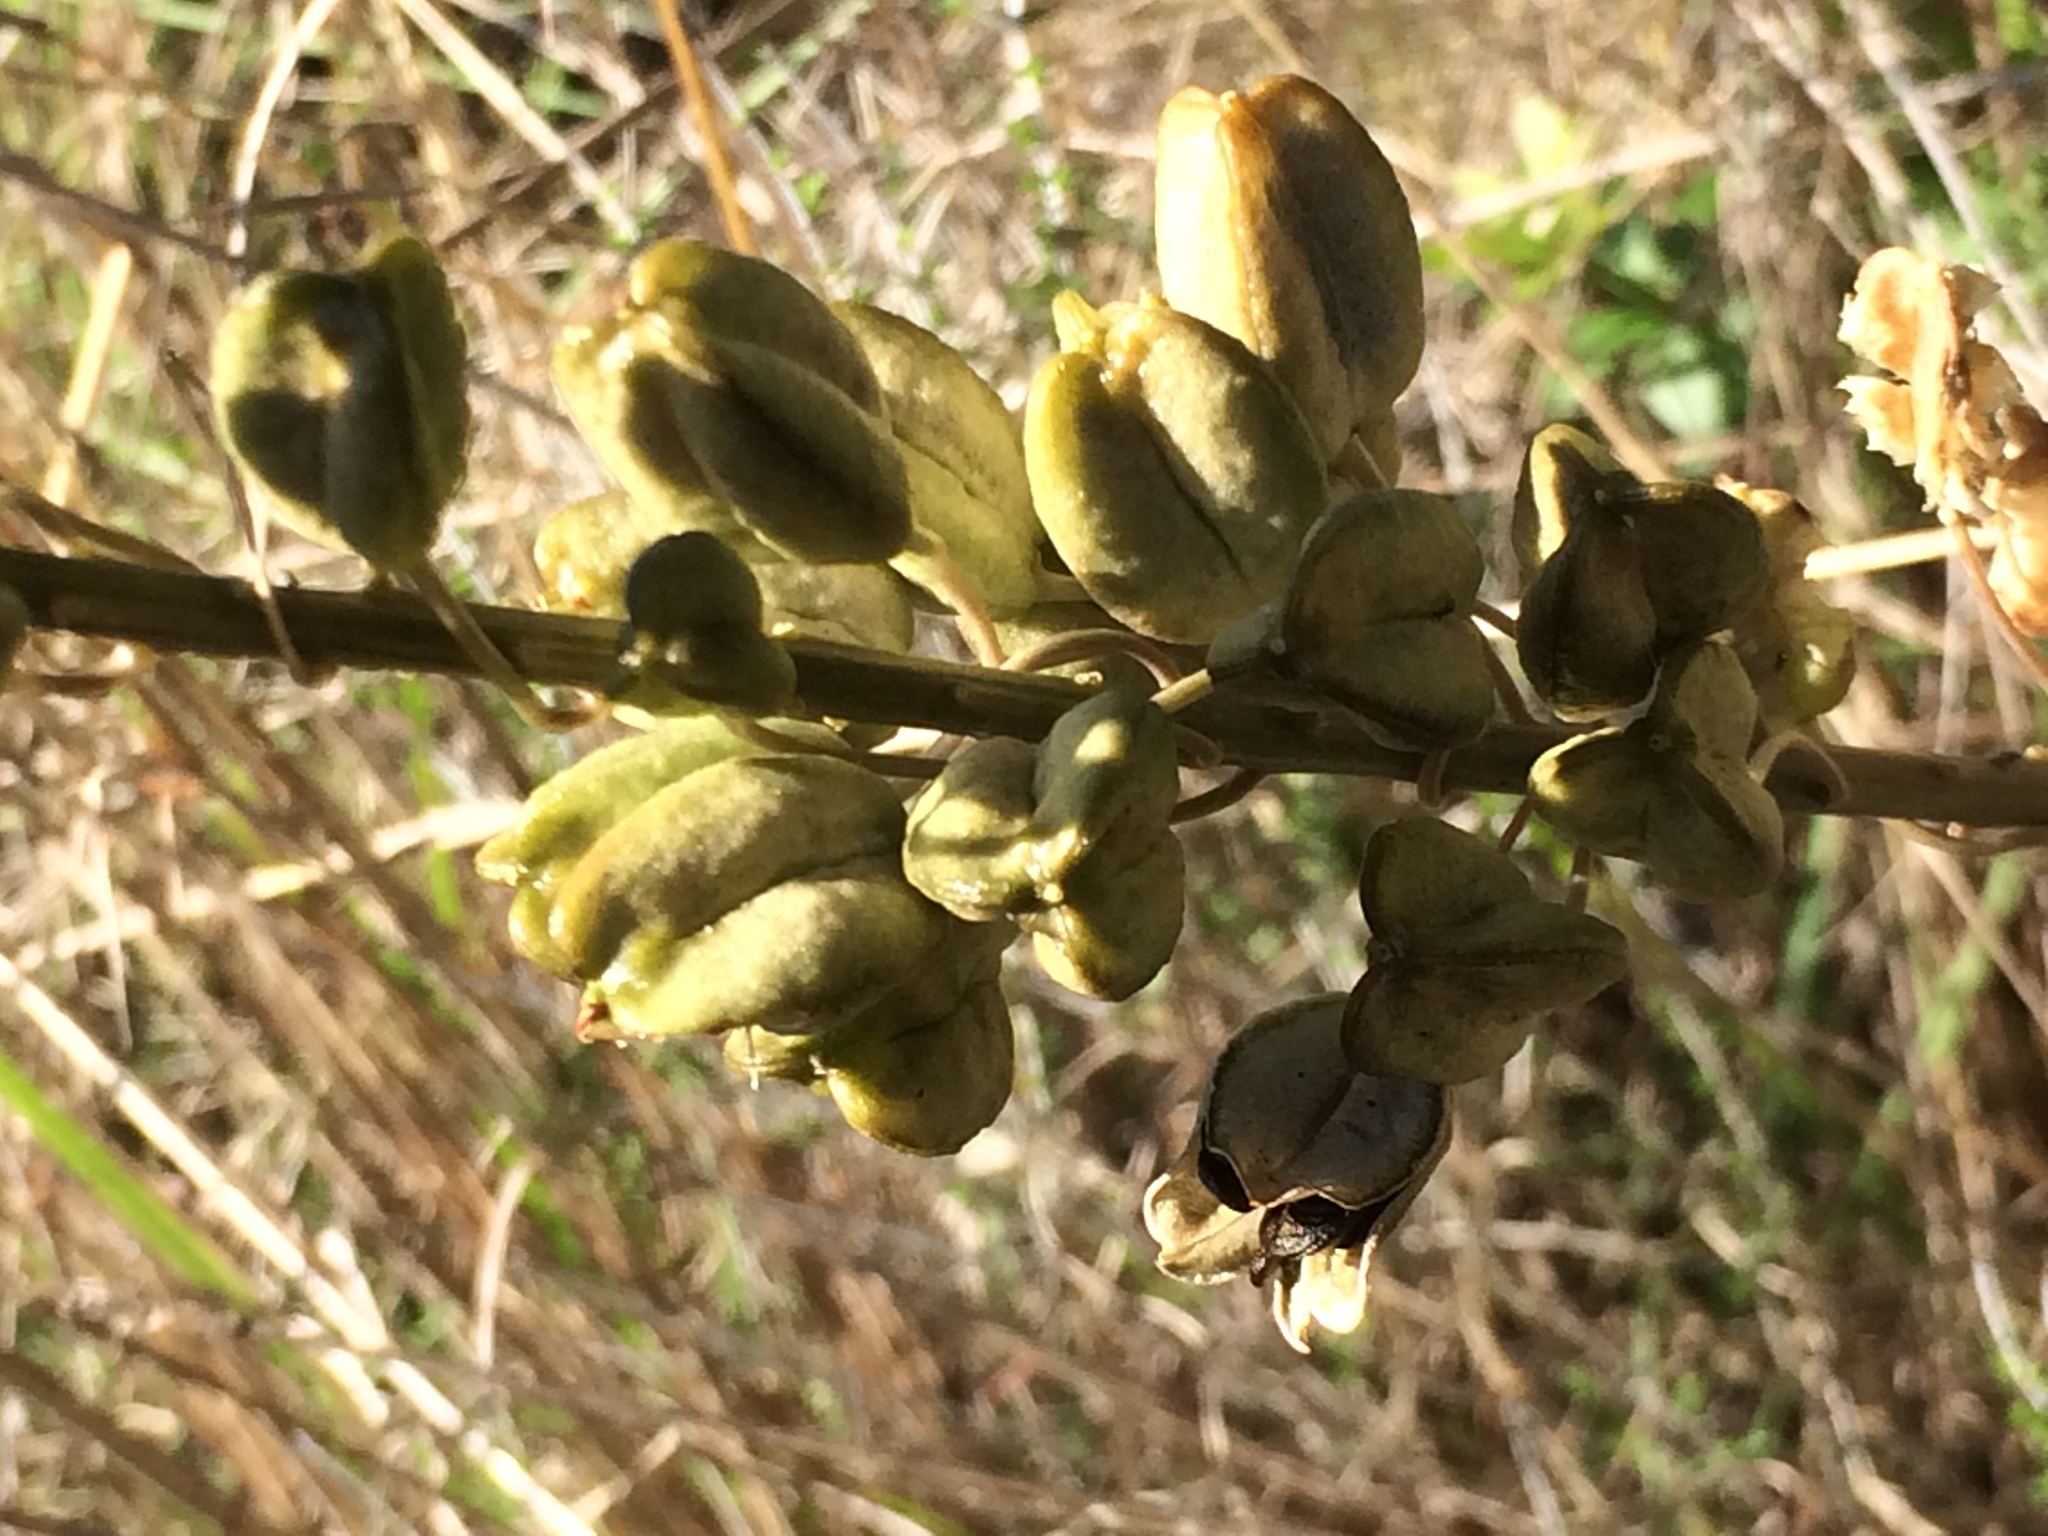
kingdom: Plantae
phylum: Tracheophyta
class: Liliopsida
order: Asparagales
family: Asparagaceae
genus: Drimia
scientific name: Drimia maritima
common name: Maritime squill
